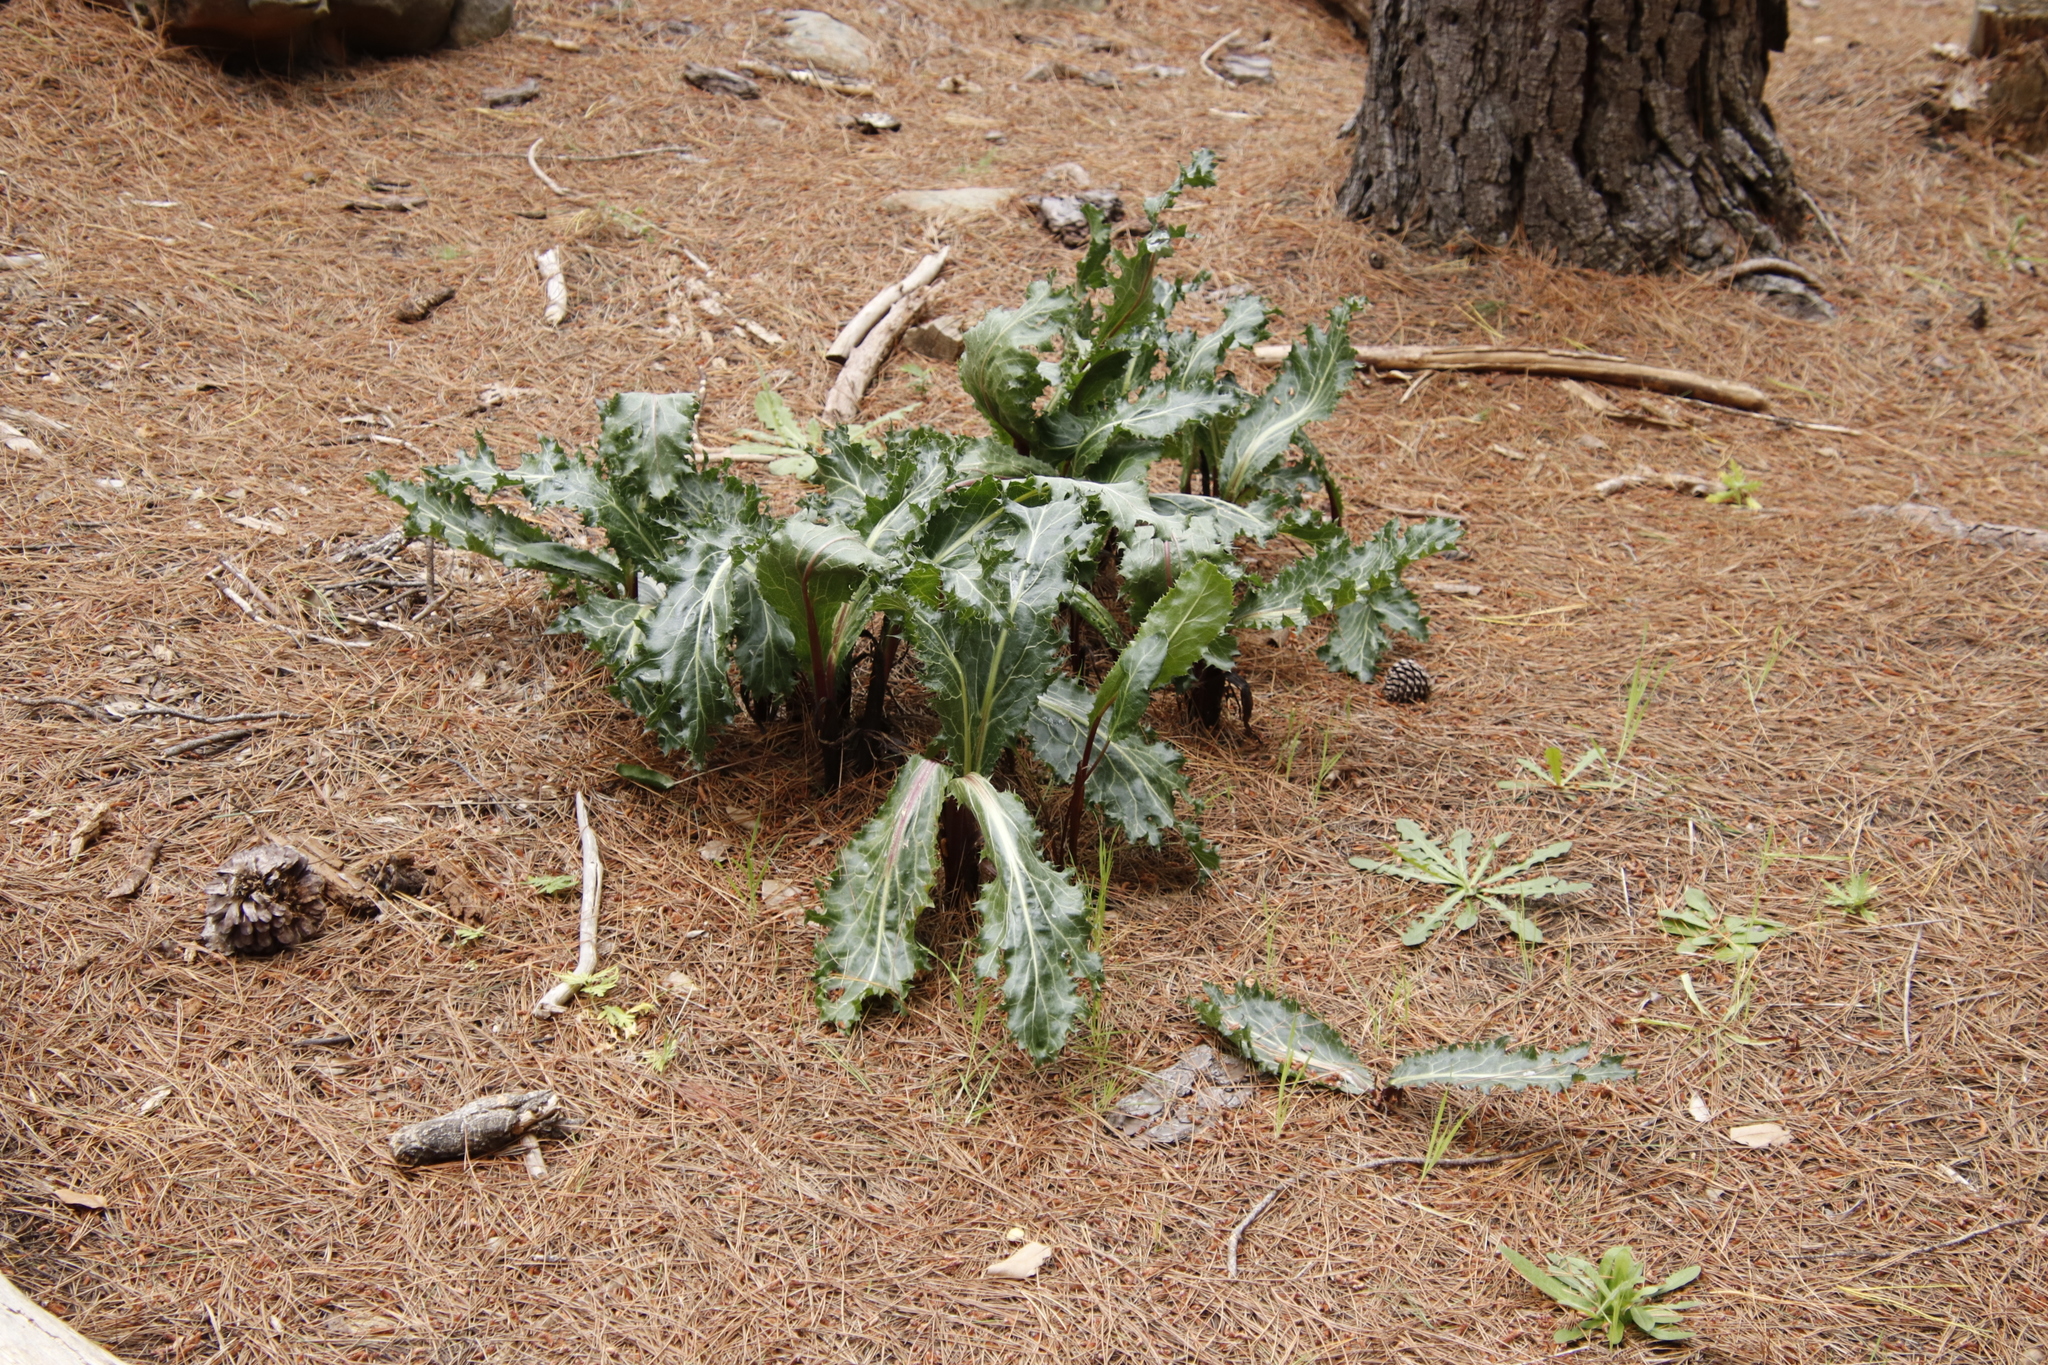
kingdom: Plantae
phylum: Tracheophyta
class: Magnoliopsida
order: Apiales
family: Apiaceae
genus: Lichtensteinia
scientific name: Lichtensteinia lacera
